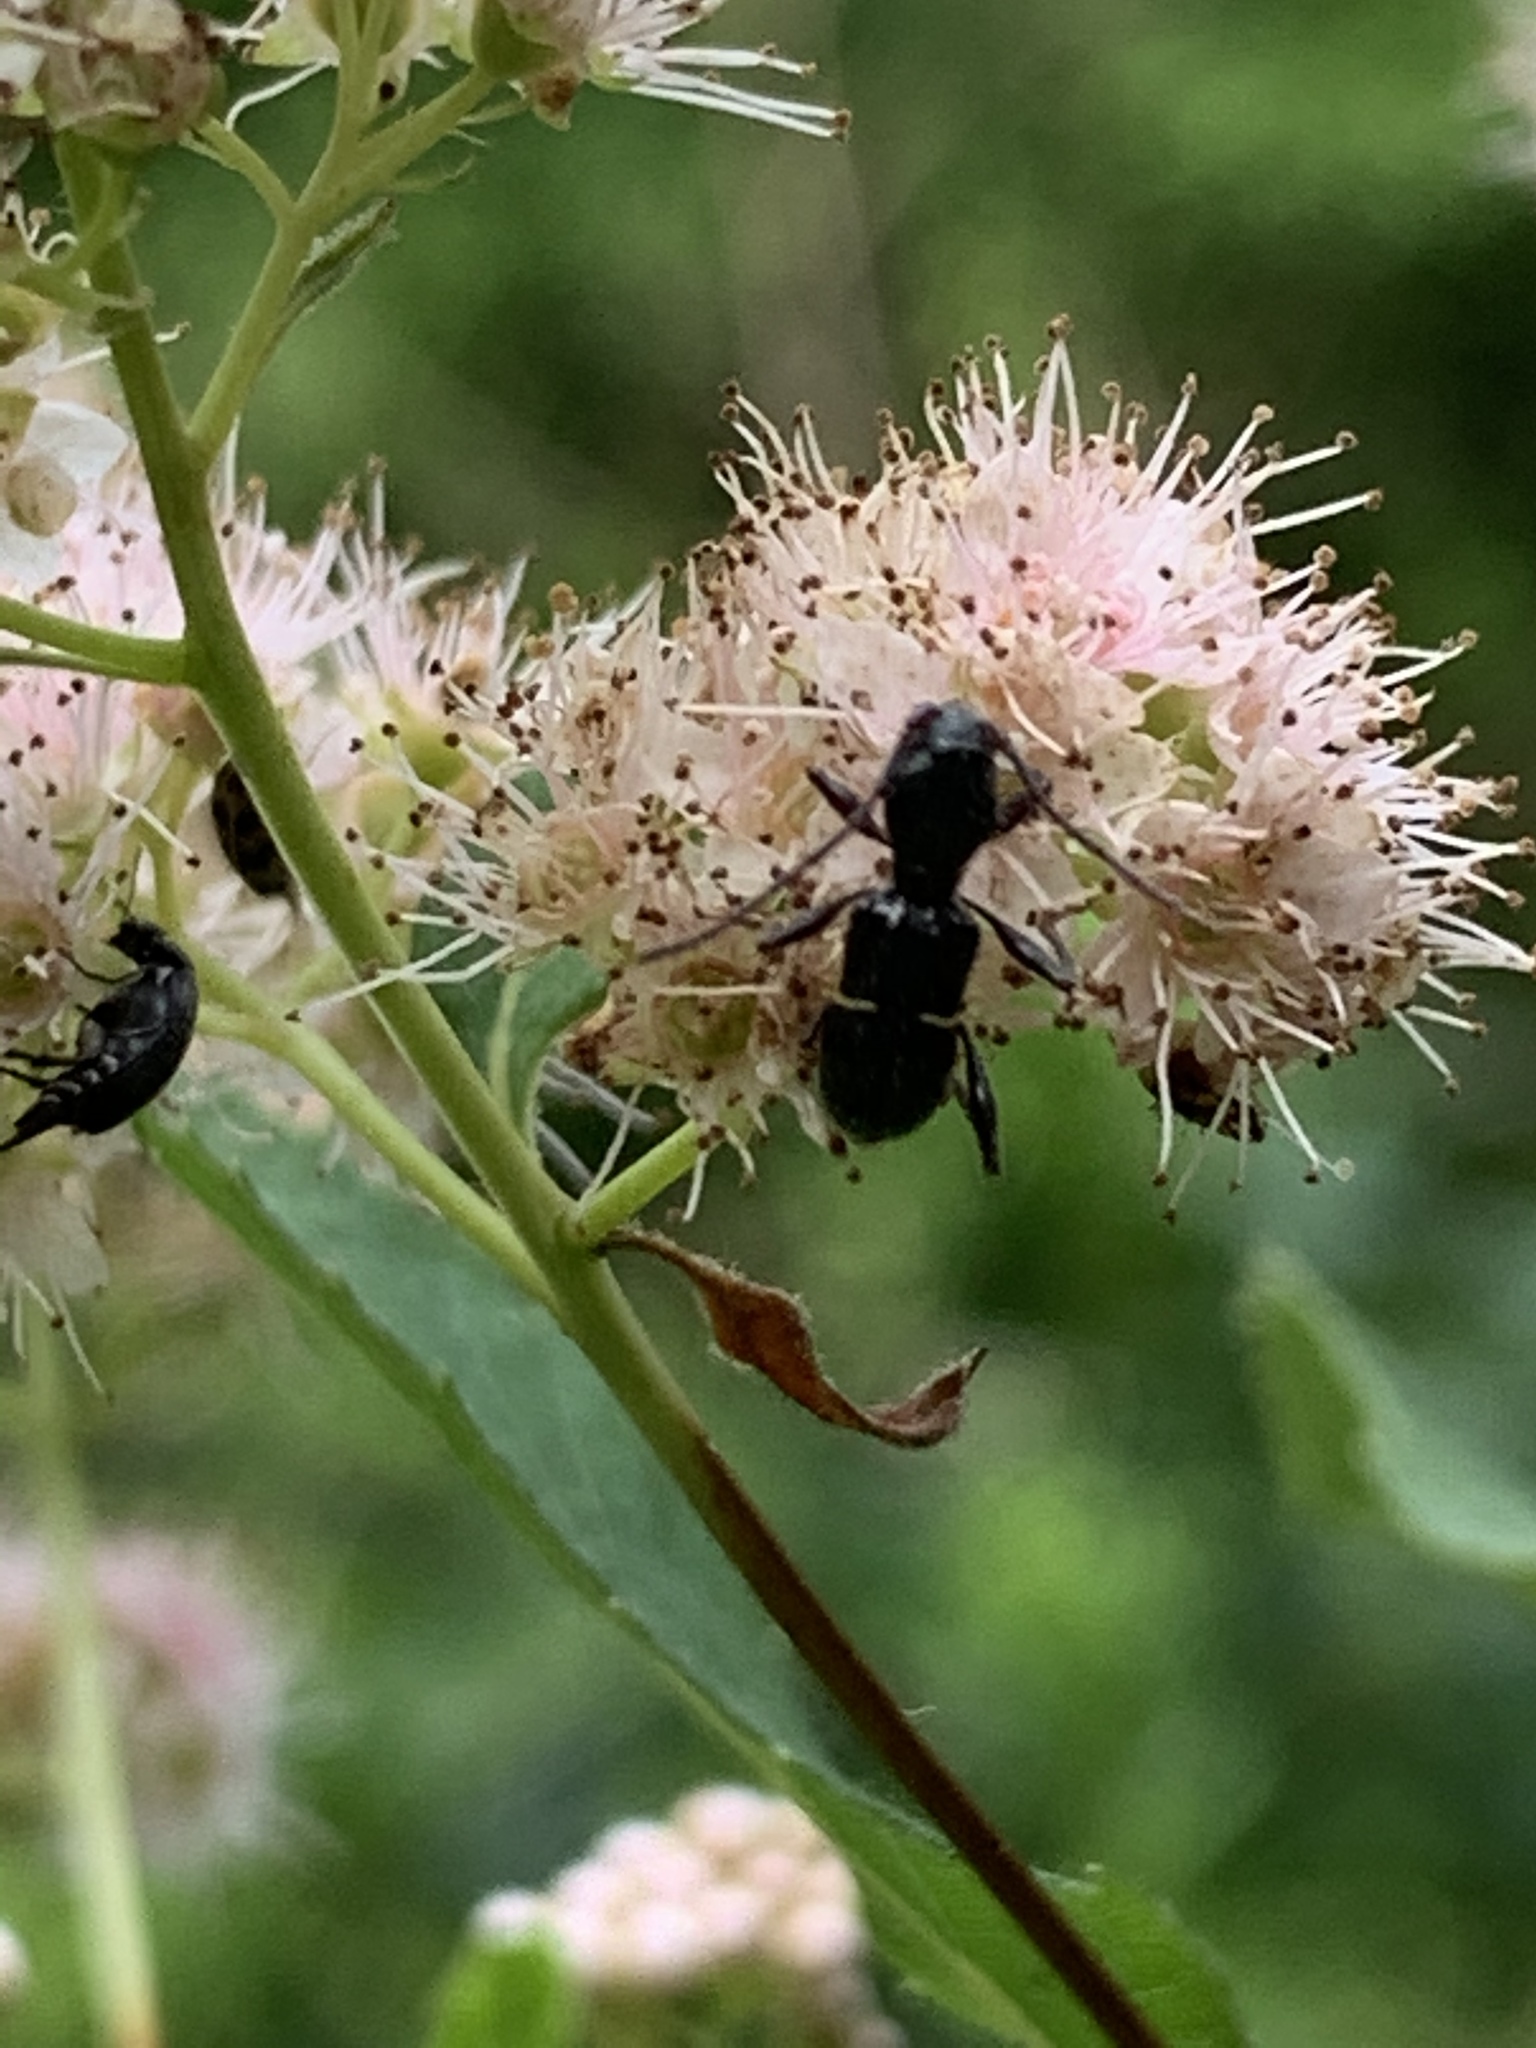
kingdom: Animalia
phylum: Arthropoda
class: Insecta
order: Coleoptera
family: Cerambycidae
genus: Euderces
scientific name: Euderces picipes
